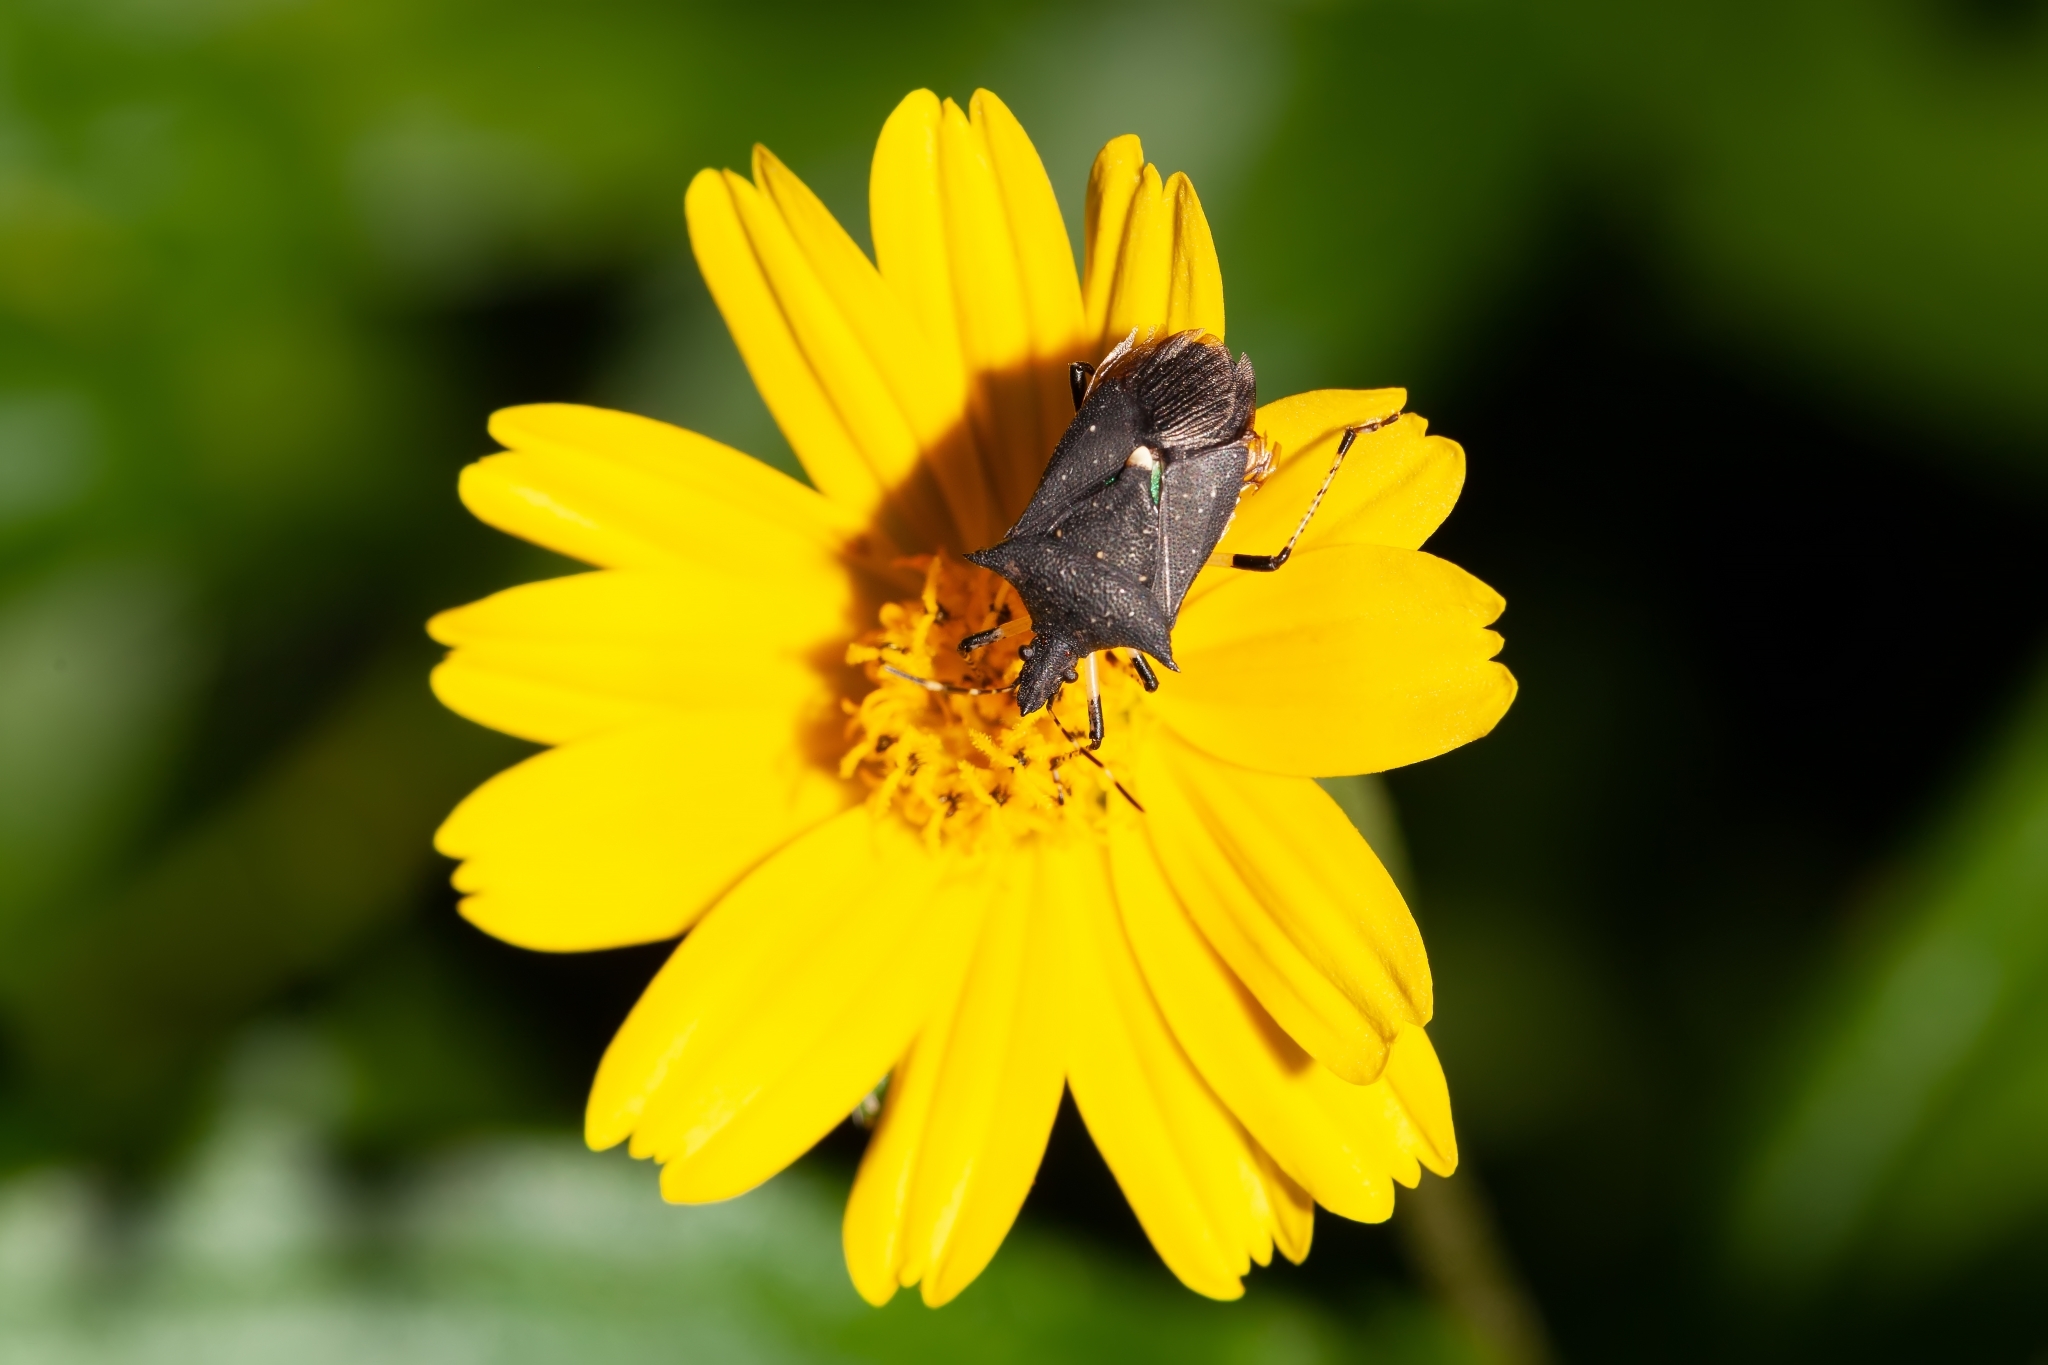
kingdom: Animalia
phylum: Arthropoda
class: Insecta
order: Hemiptera
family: Pentatomidae
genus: Proxys
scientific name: Proxys punctulatus
